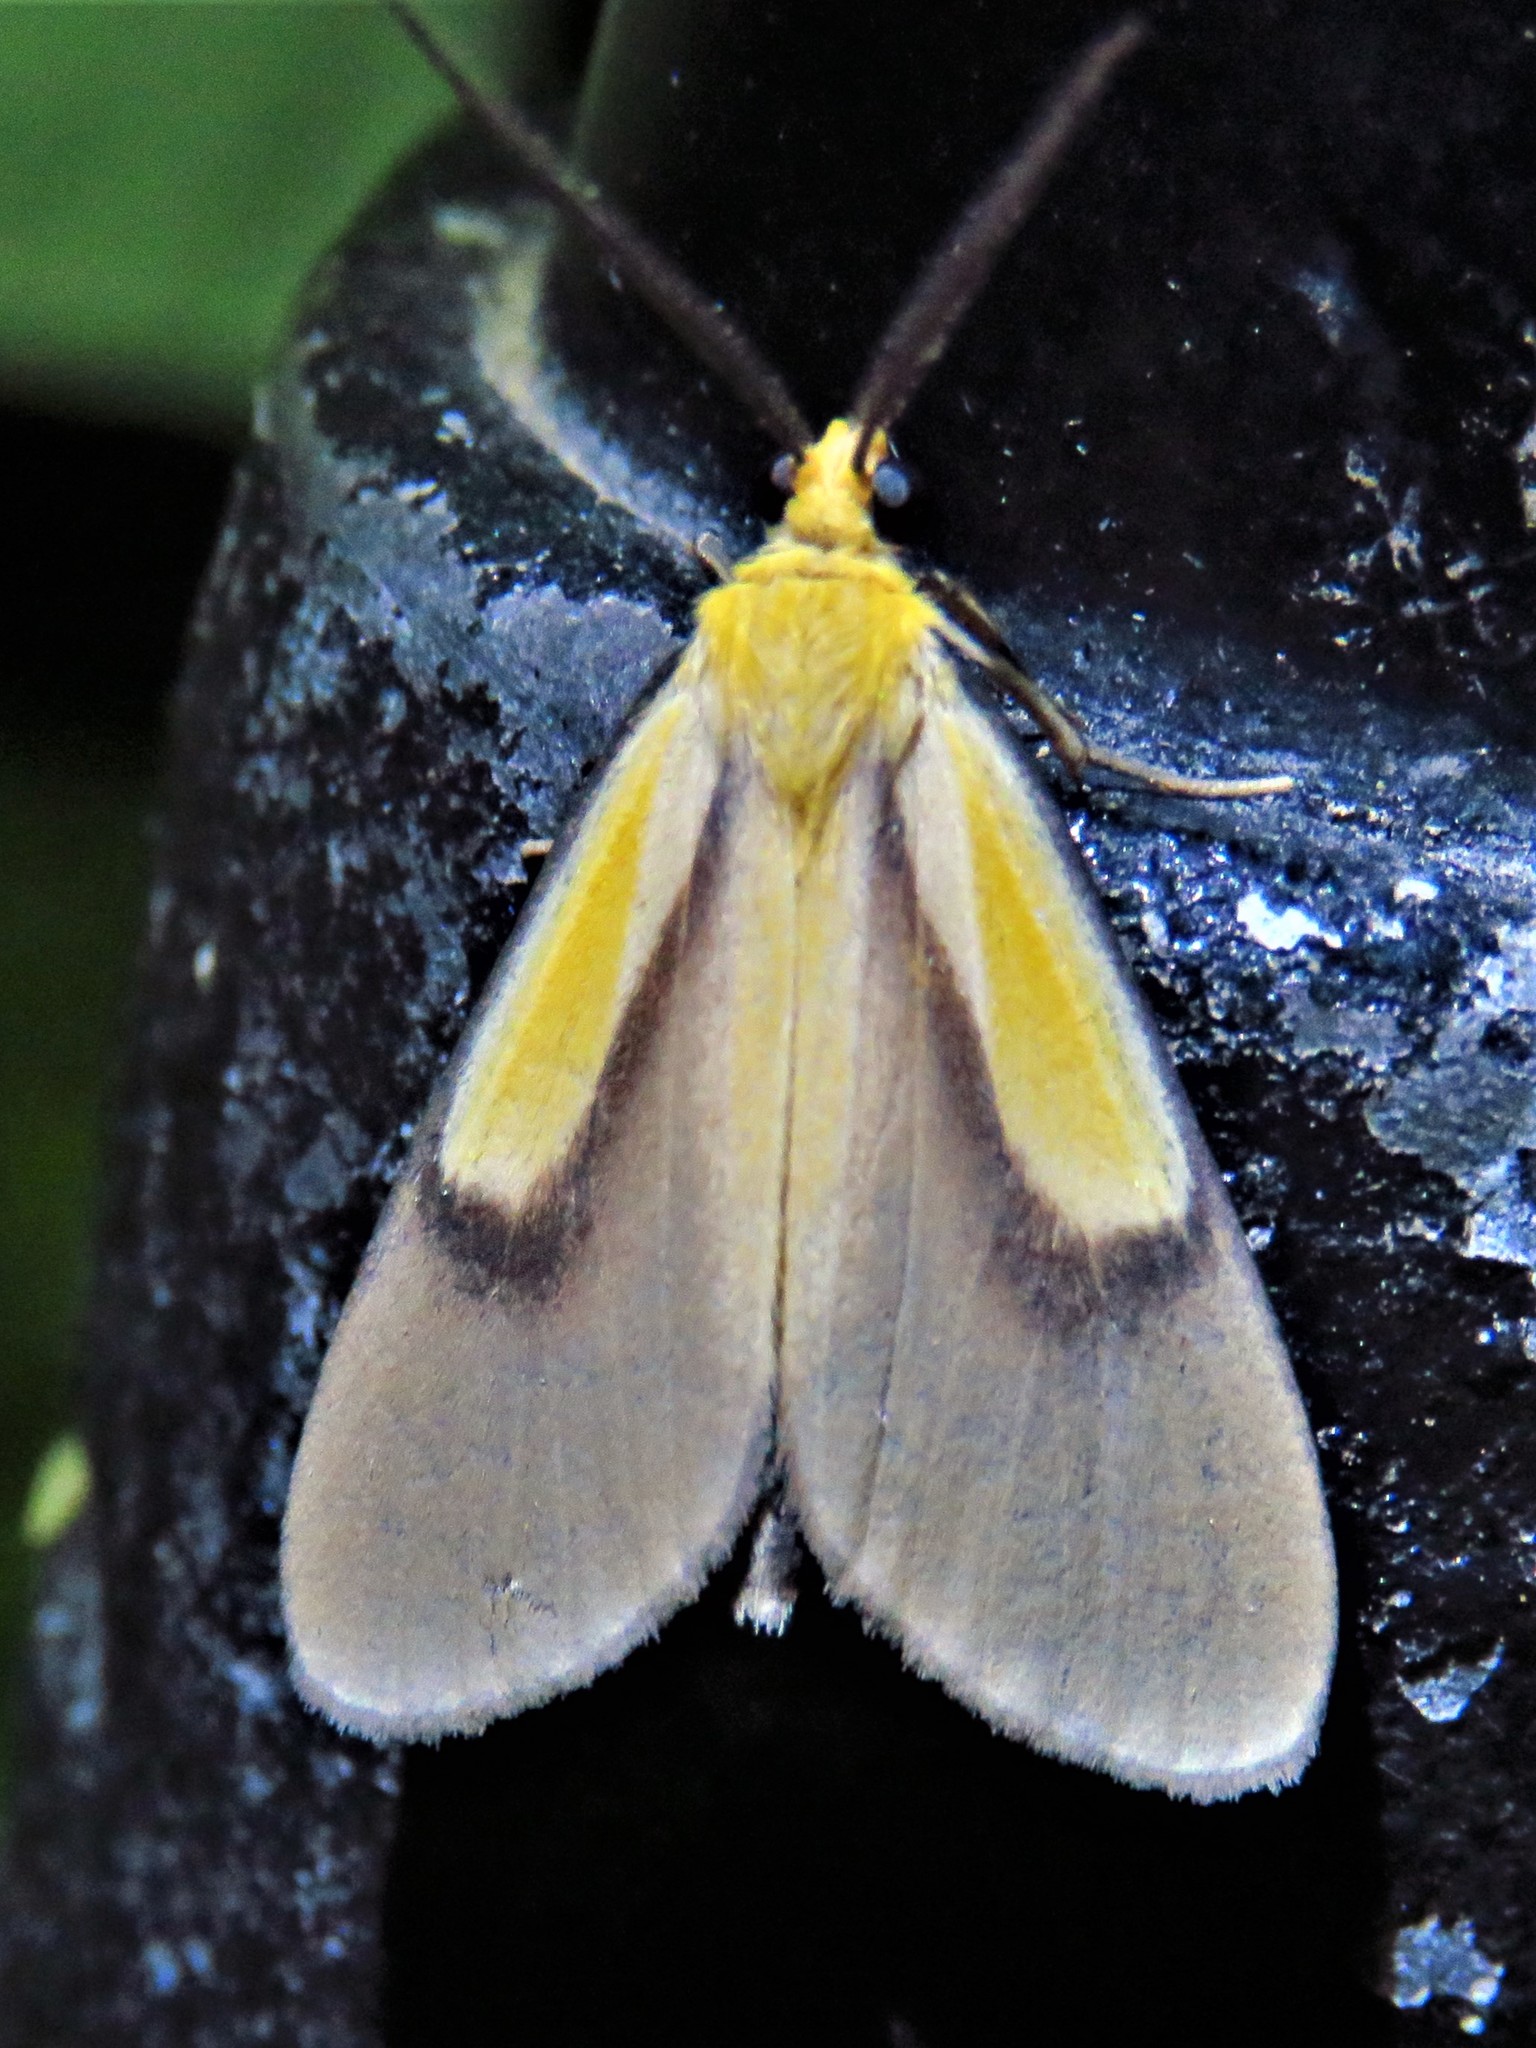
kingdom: Animalia
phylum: Arthropoda
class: Insecta
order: Lepidoptera
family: Notodontidae
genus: Oricia
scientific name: Oricia truncata
